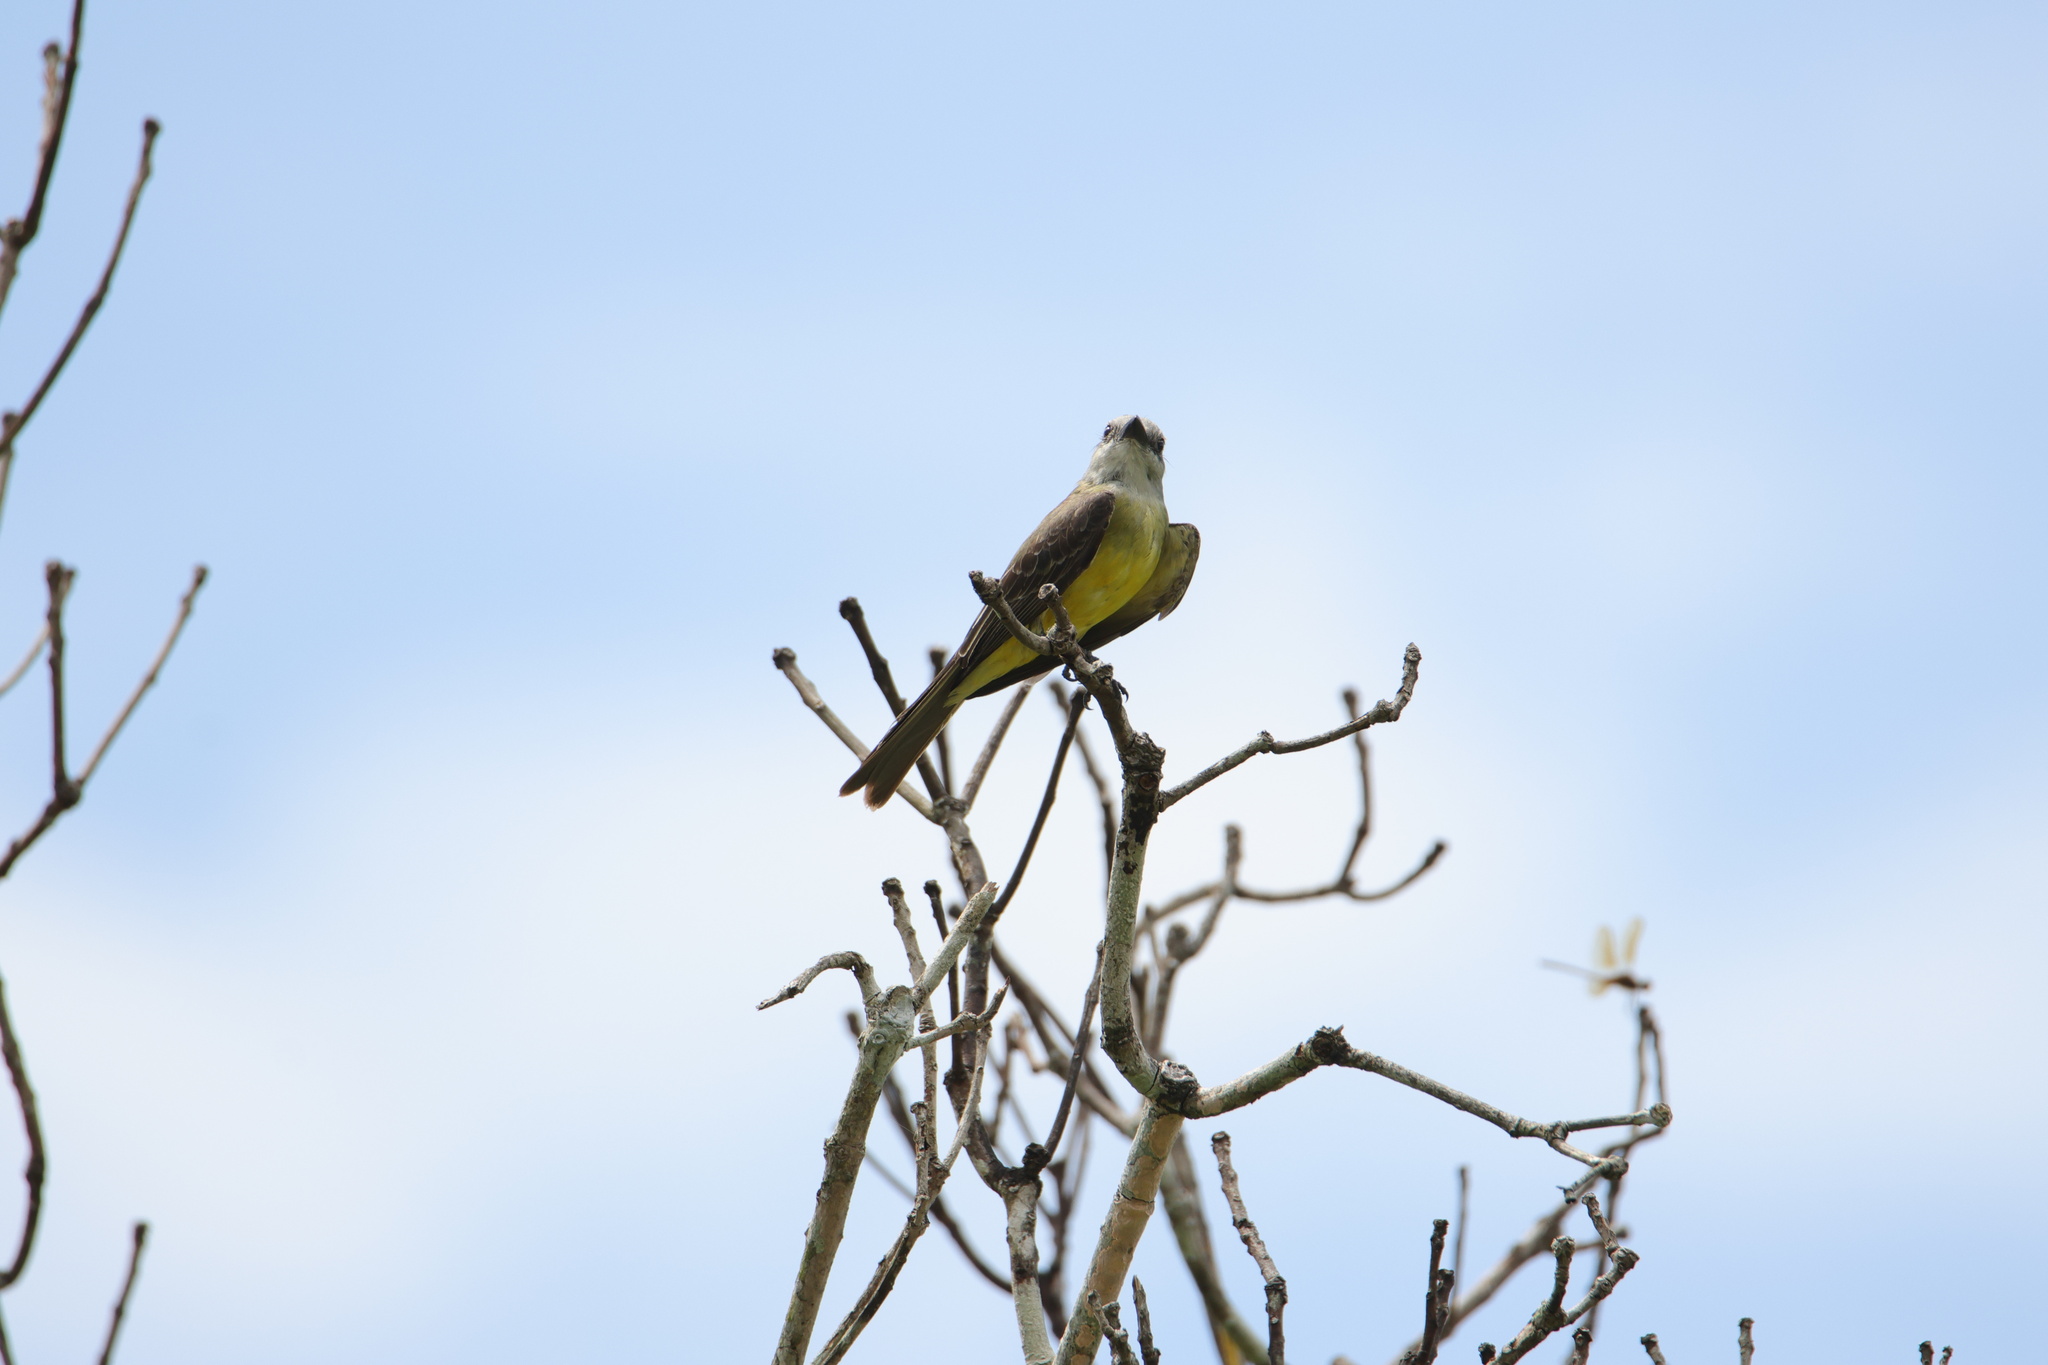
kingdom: Animalia
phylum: Chordata
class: Aves
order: Passeriformes
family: Tyrannidae
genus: Tyrannus
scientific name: Tyrannus melancholicus
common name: Tropical kingbird
